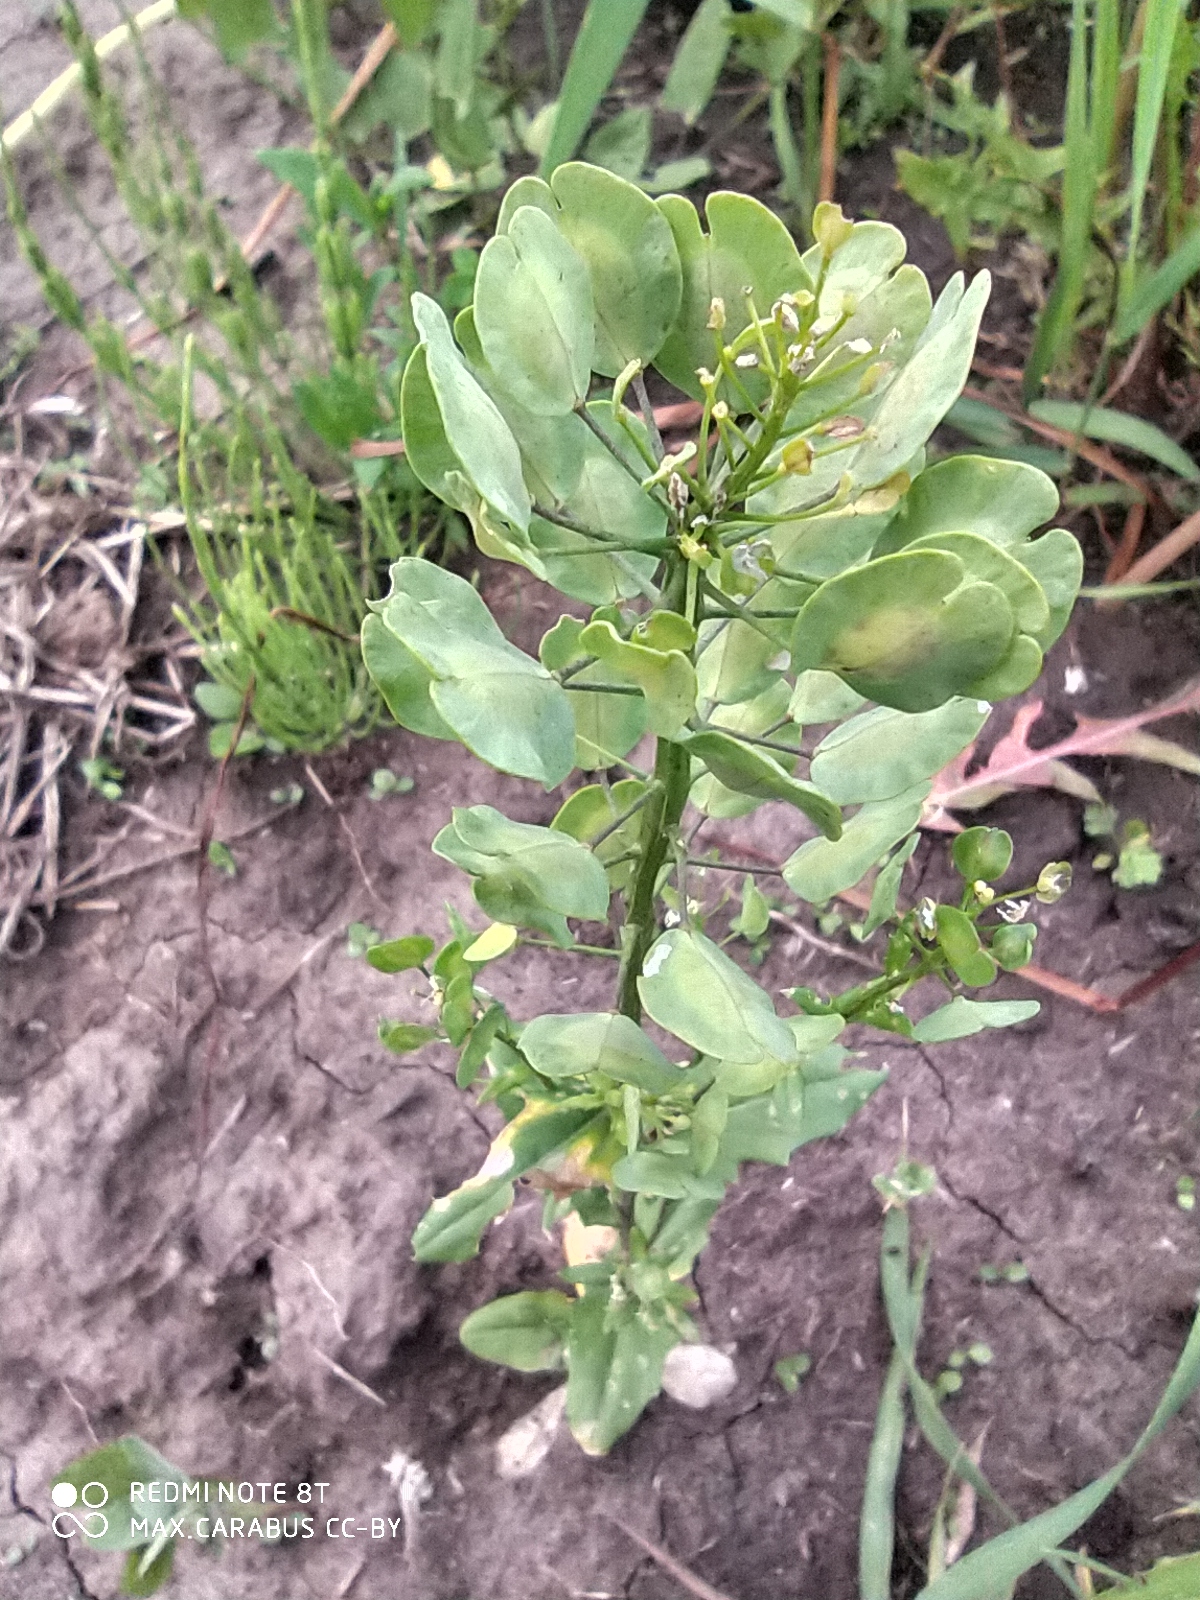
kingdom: Plantae
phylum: Tracheophyta
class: Magnoliopsida
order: Brassicales
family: Brassicaceae
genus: Thlaspi
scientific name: Thlaspi arvense
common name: Field pennycress
